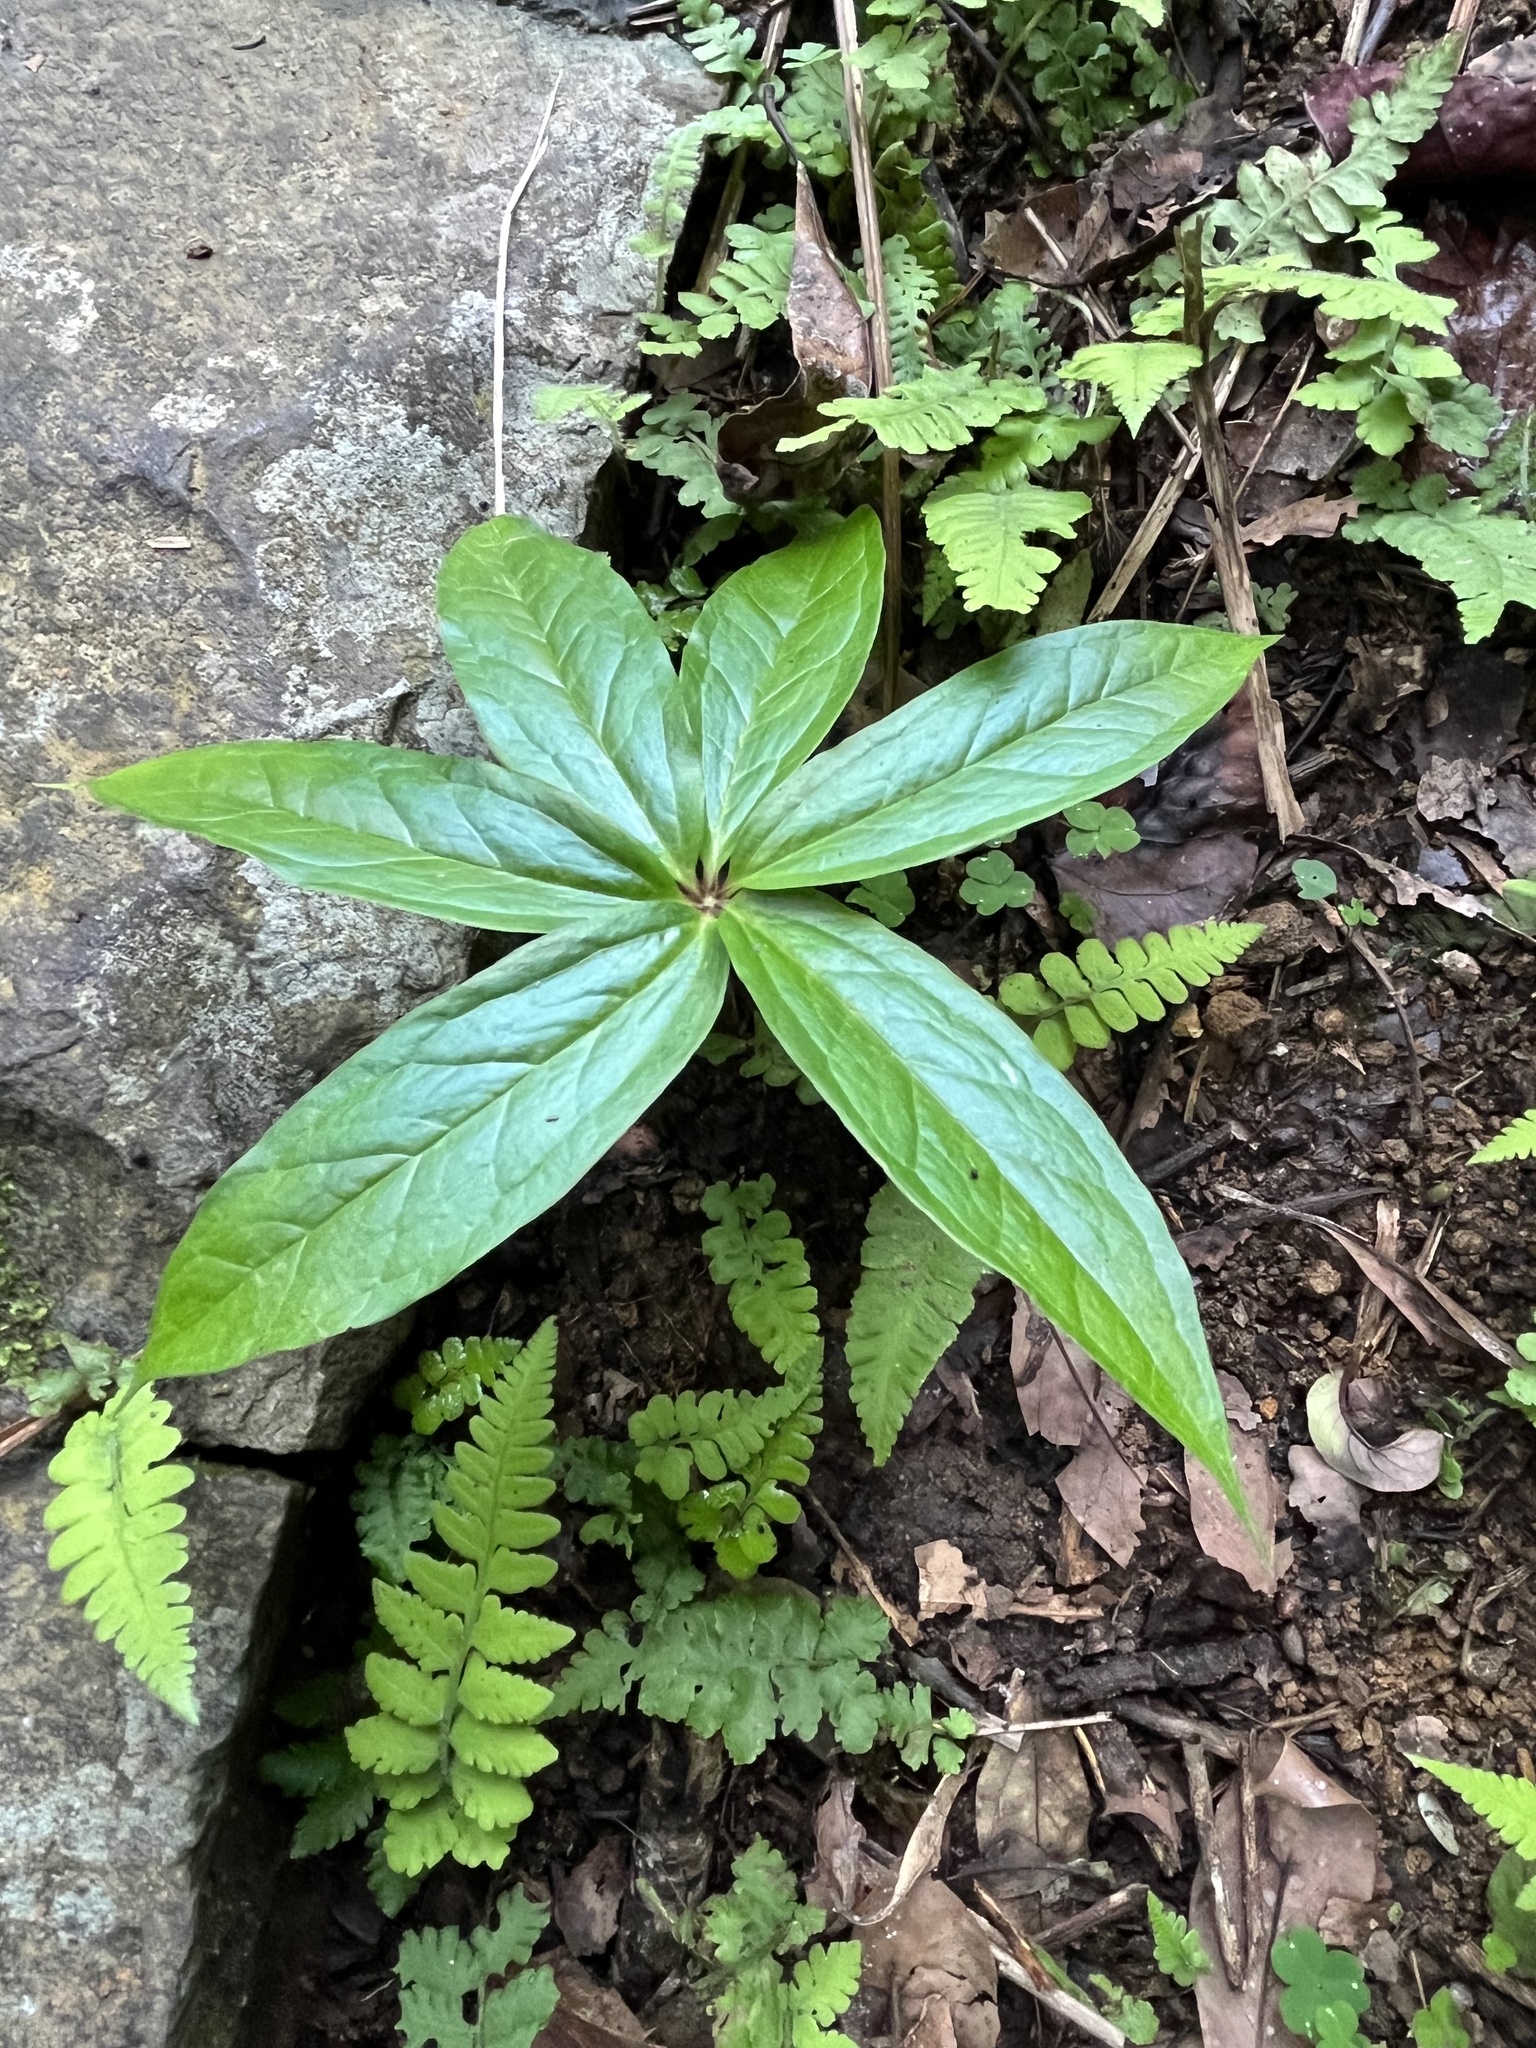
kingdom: Plantae
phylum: Tracheophyta
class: Liliopsida
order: Liliales
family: Melanthiaceae
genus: Paris
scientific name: Paris polyphylla
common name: Love apple
